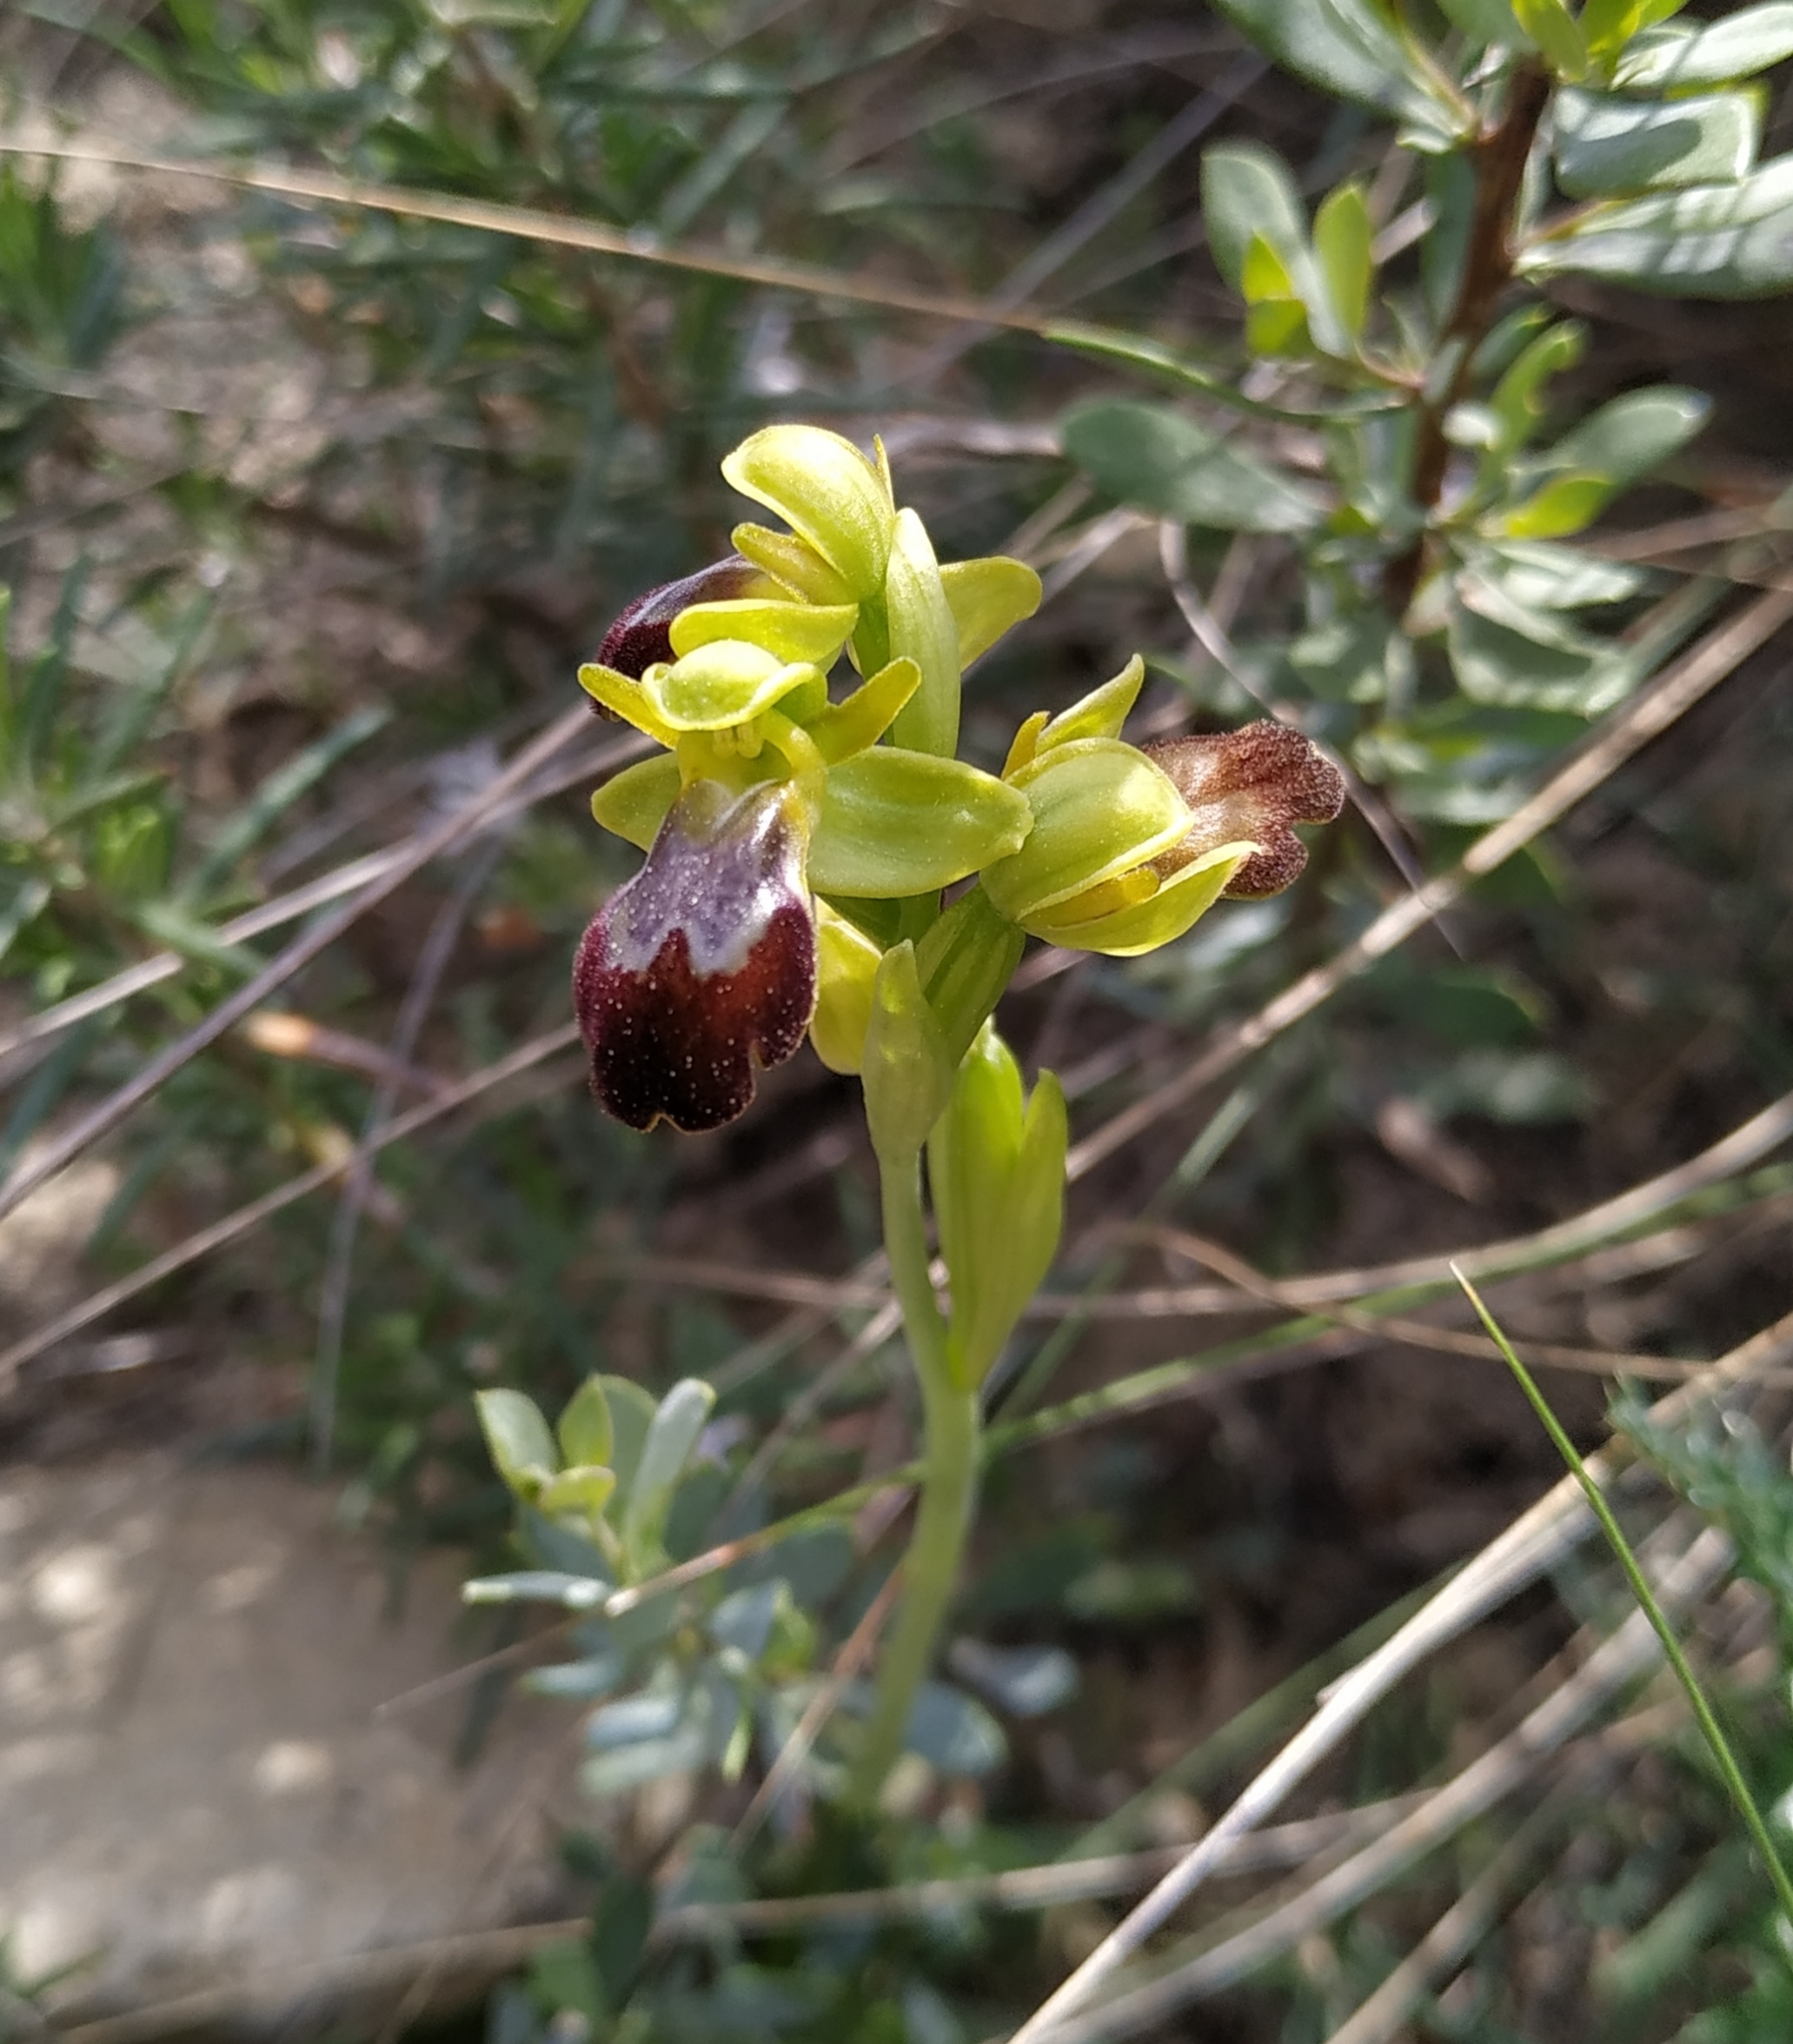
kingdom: Plantae
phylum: Tracheophyta
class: Liliopsida
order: Asparagales
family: Orchidaceae
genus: Ophrys
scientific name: Ophrys fusca
